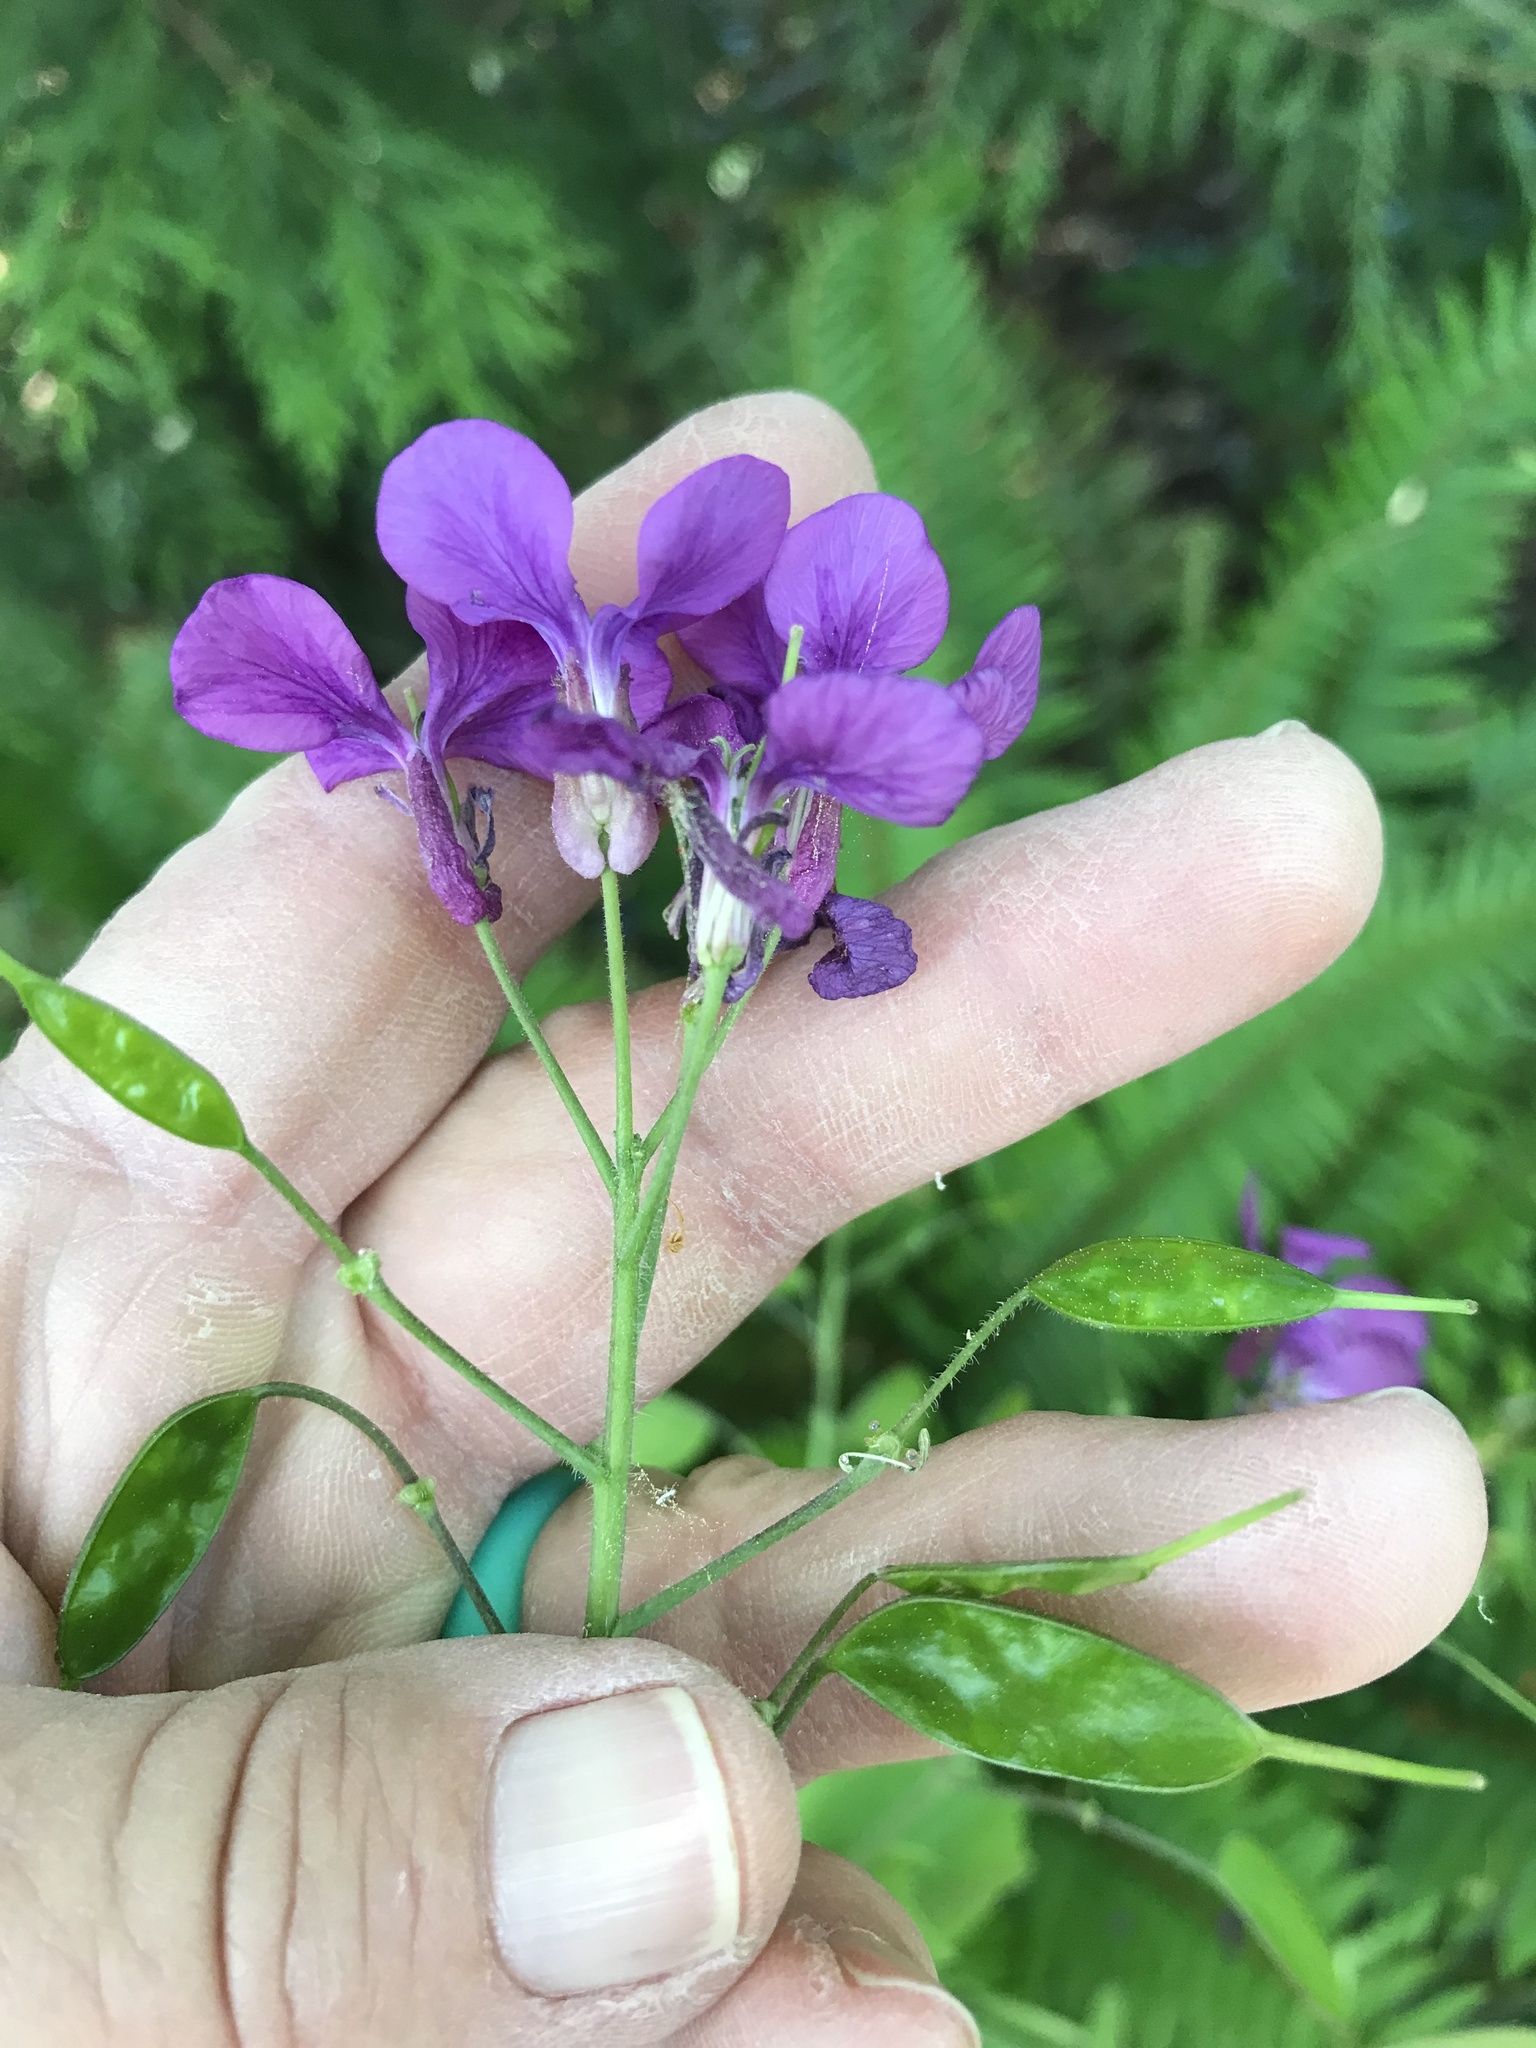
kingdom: Plantae
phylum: Tracheophyta
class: Magnoliopsida
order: Brassicales
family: Brassicaceae
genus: Lunaria
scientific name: Lunaria annua
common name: Honesty
